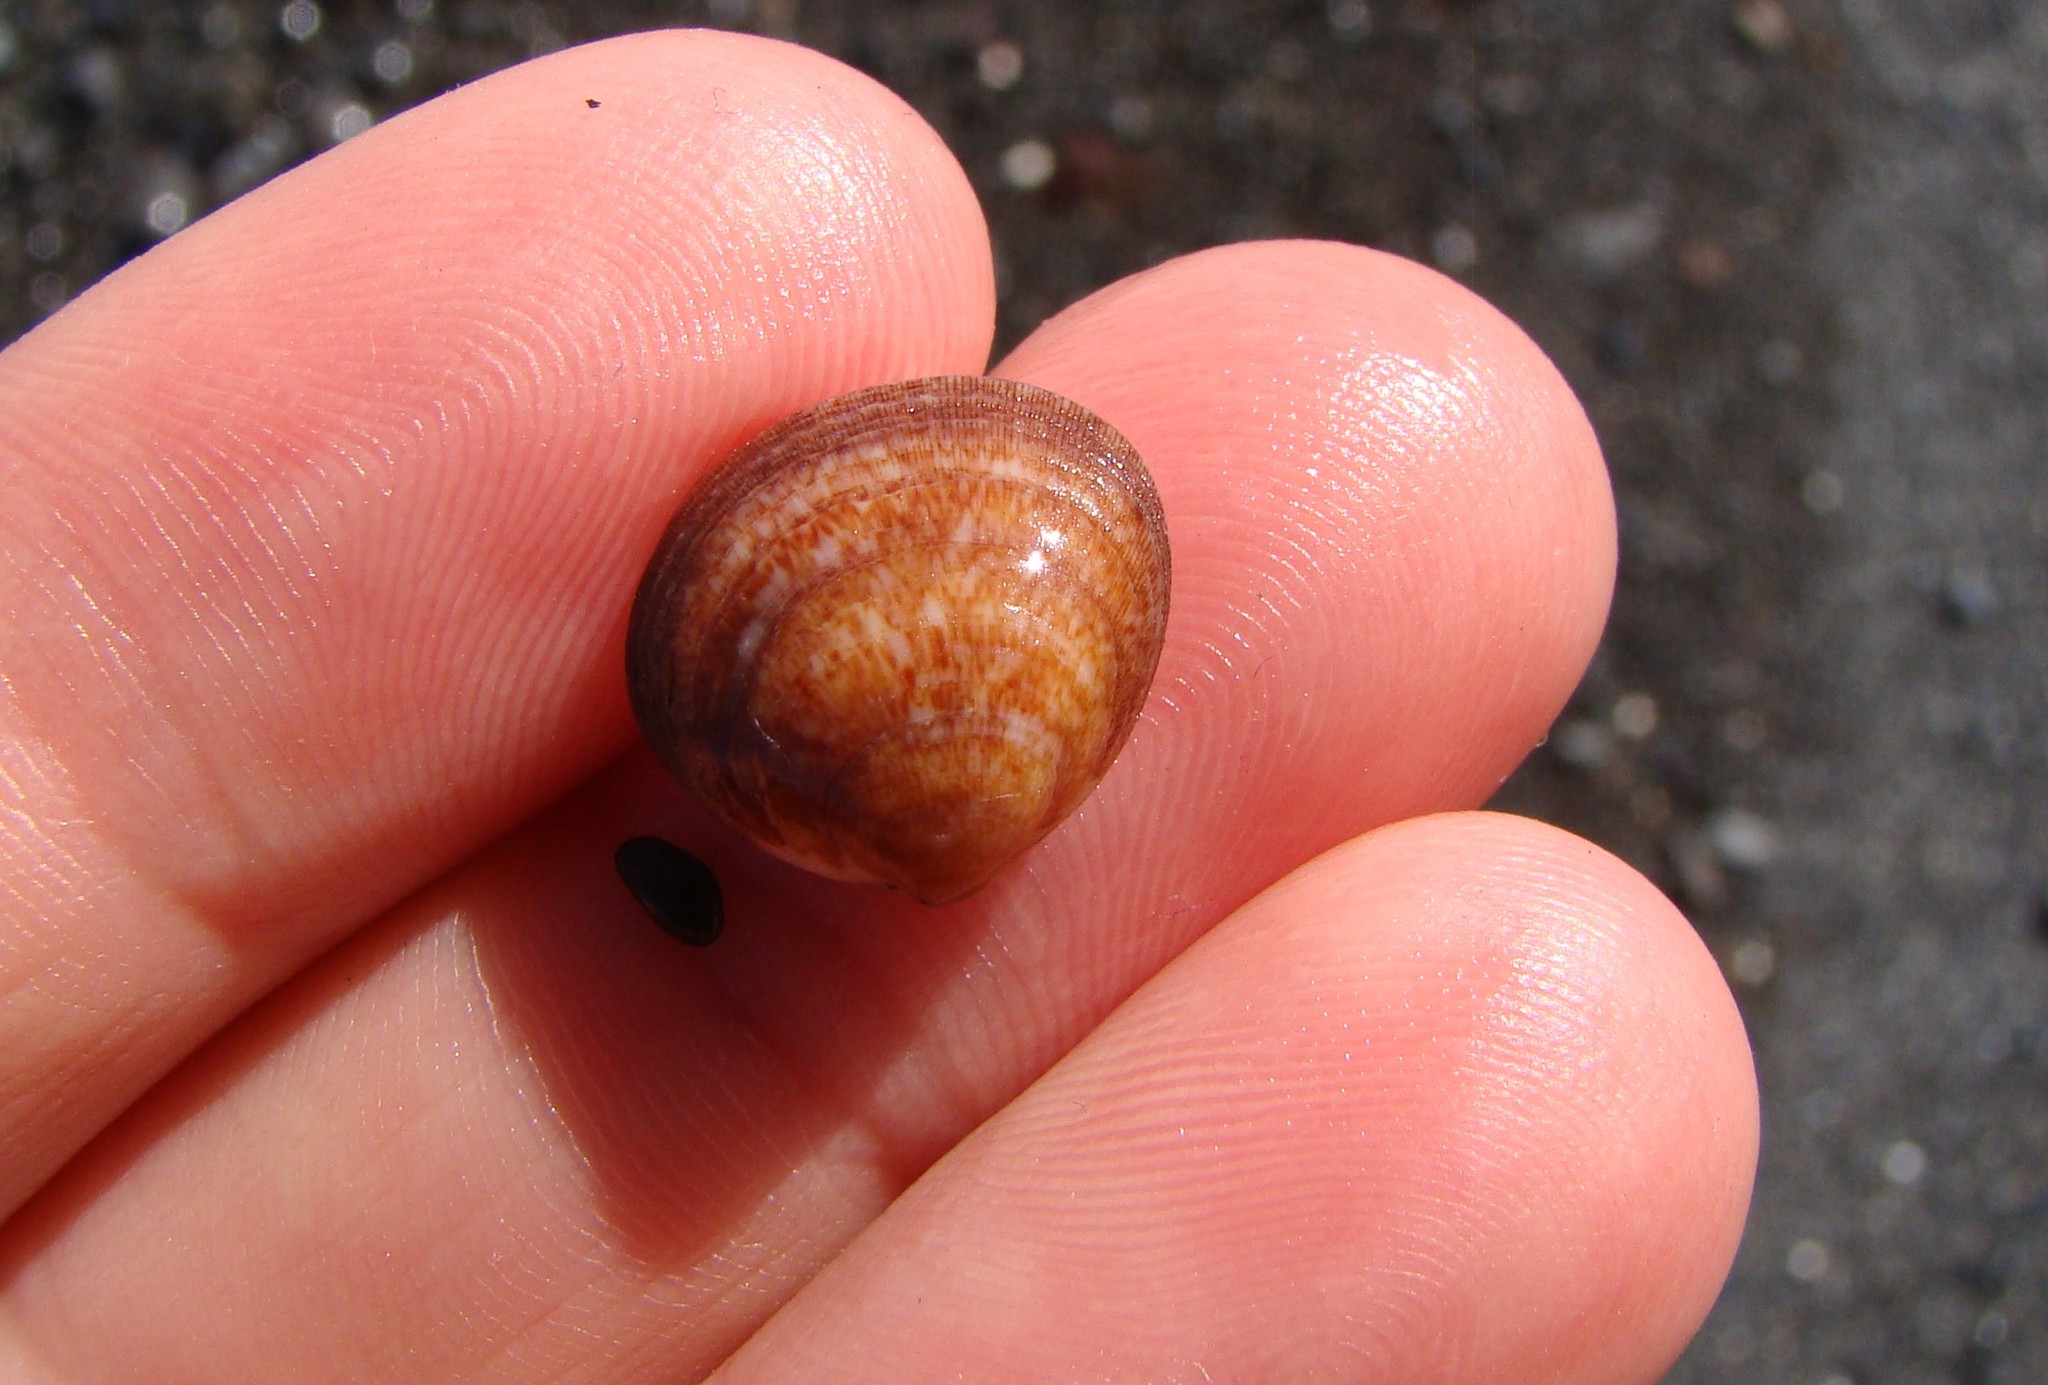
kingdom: Animalia
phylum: Mollusca
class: Bivalvia
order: Arcida
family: Glycymerididae
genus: Glycymeris
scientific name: Glycymeris modesta
